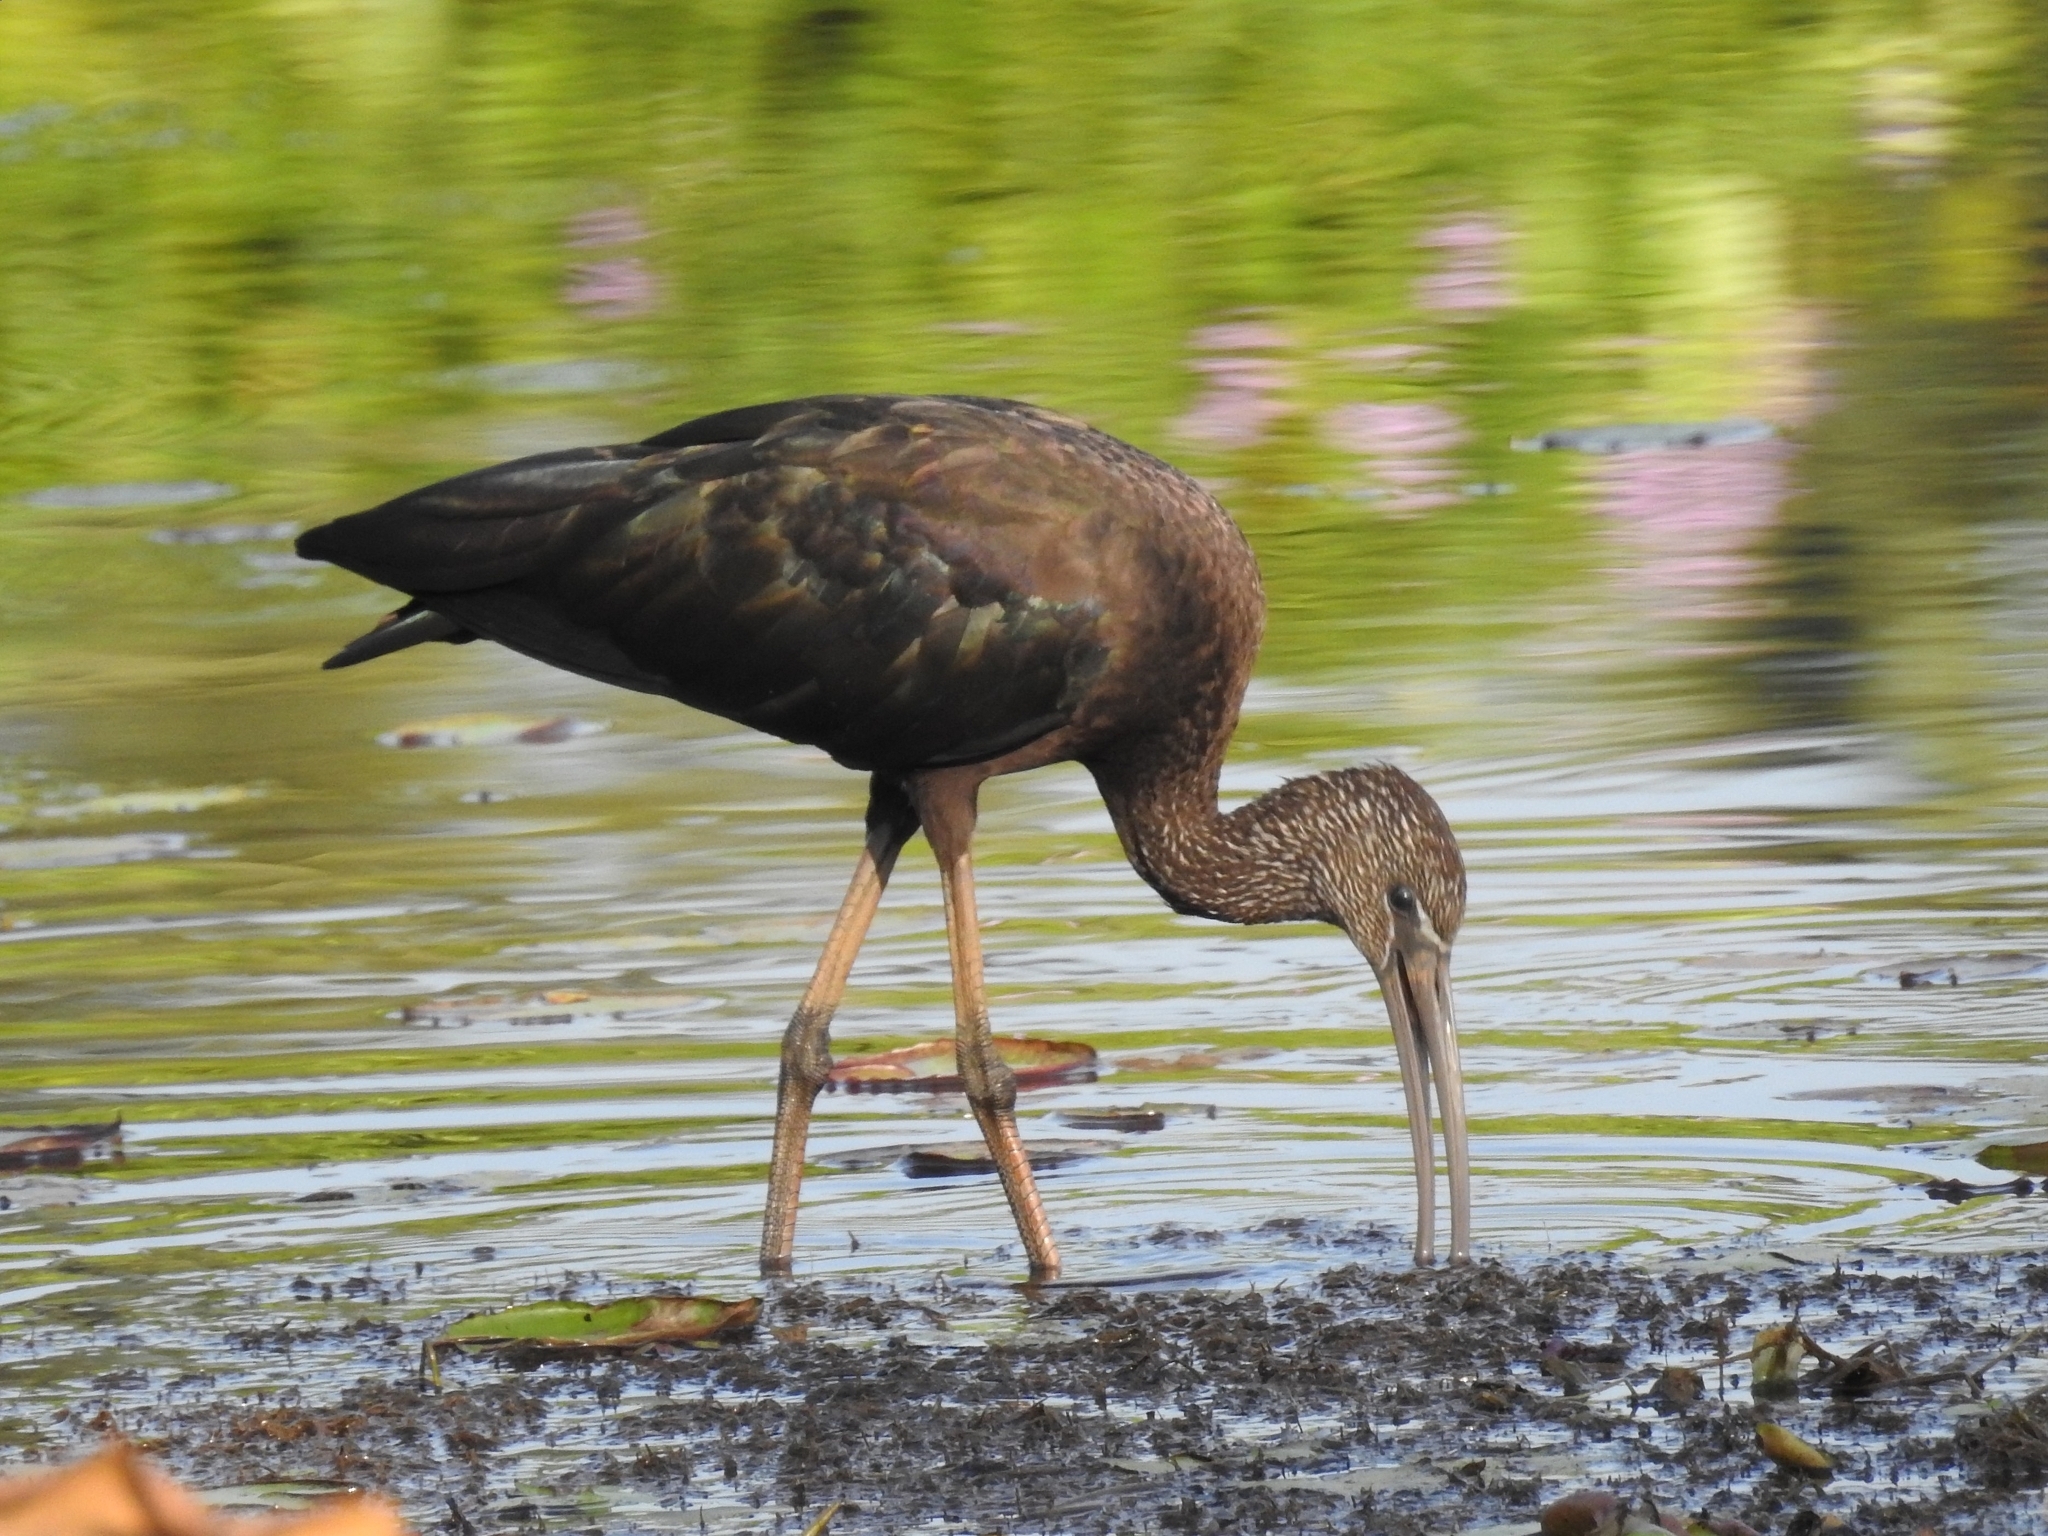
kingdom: Animalia
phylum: Chordata
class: Aves
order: Pelecaniformes
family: Threskiornithidae
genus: Plegadis
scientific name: Plegadis falcinellus
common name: Glossy ibis
